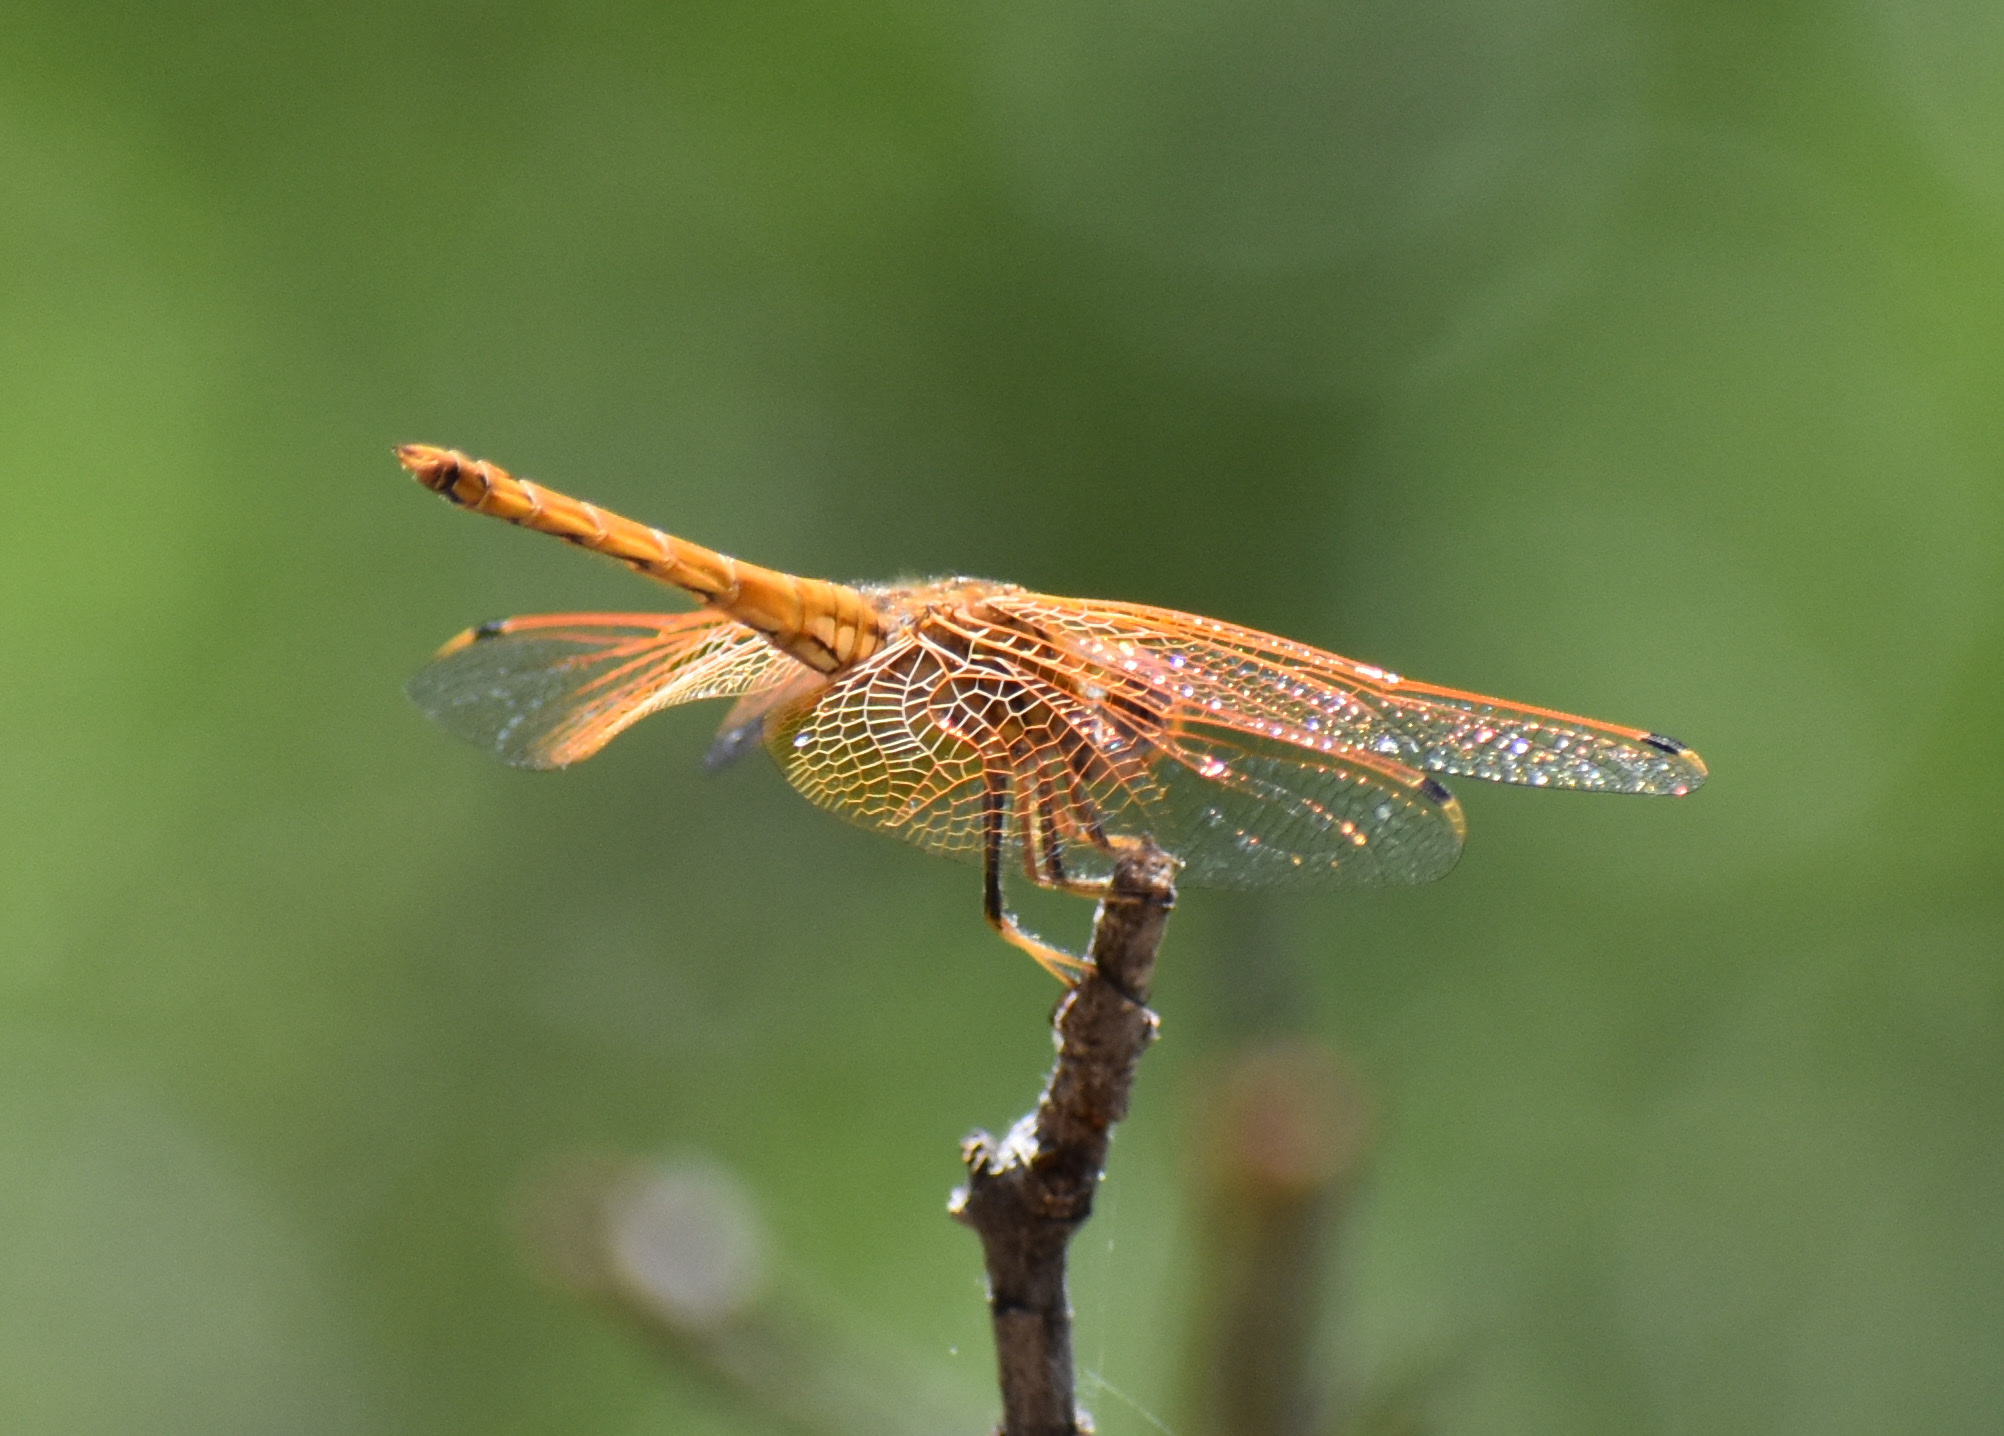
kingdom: Animalia
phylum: Arthropoda
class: Insecta
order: Odonata
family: Libellulidae
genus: Trithemis
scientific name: Trithemis kirbyi
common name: Kirby's dropwing
